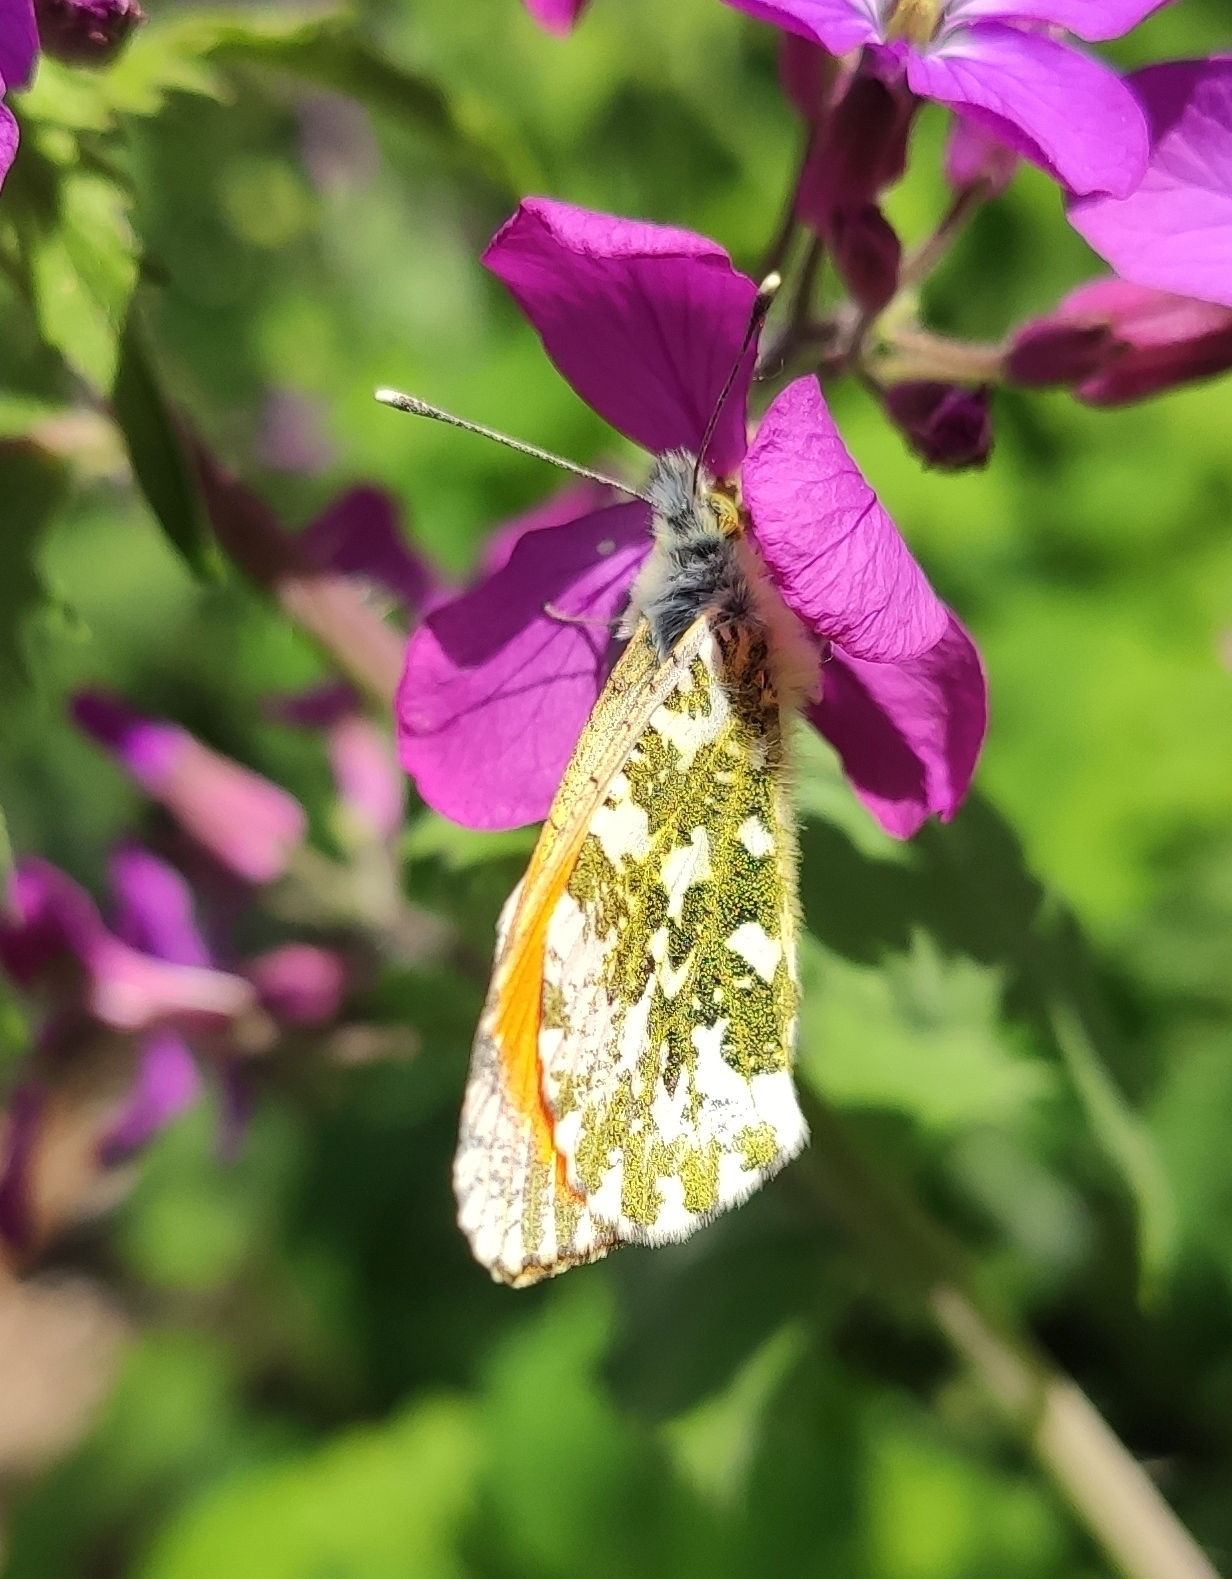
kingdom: Animalia
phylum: Arthropoda
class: Insecta
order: Lepidoptera
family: Pieridae
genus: Anthocharis
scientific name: Anthocharis cardamines
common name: Orange-tip
